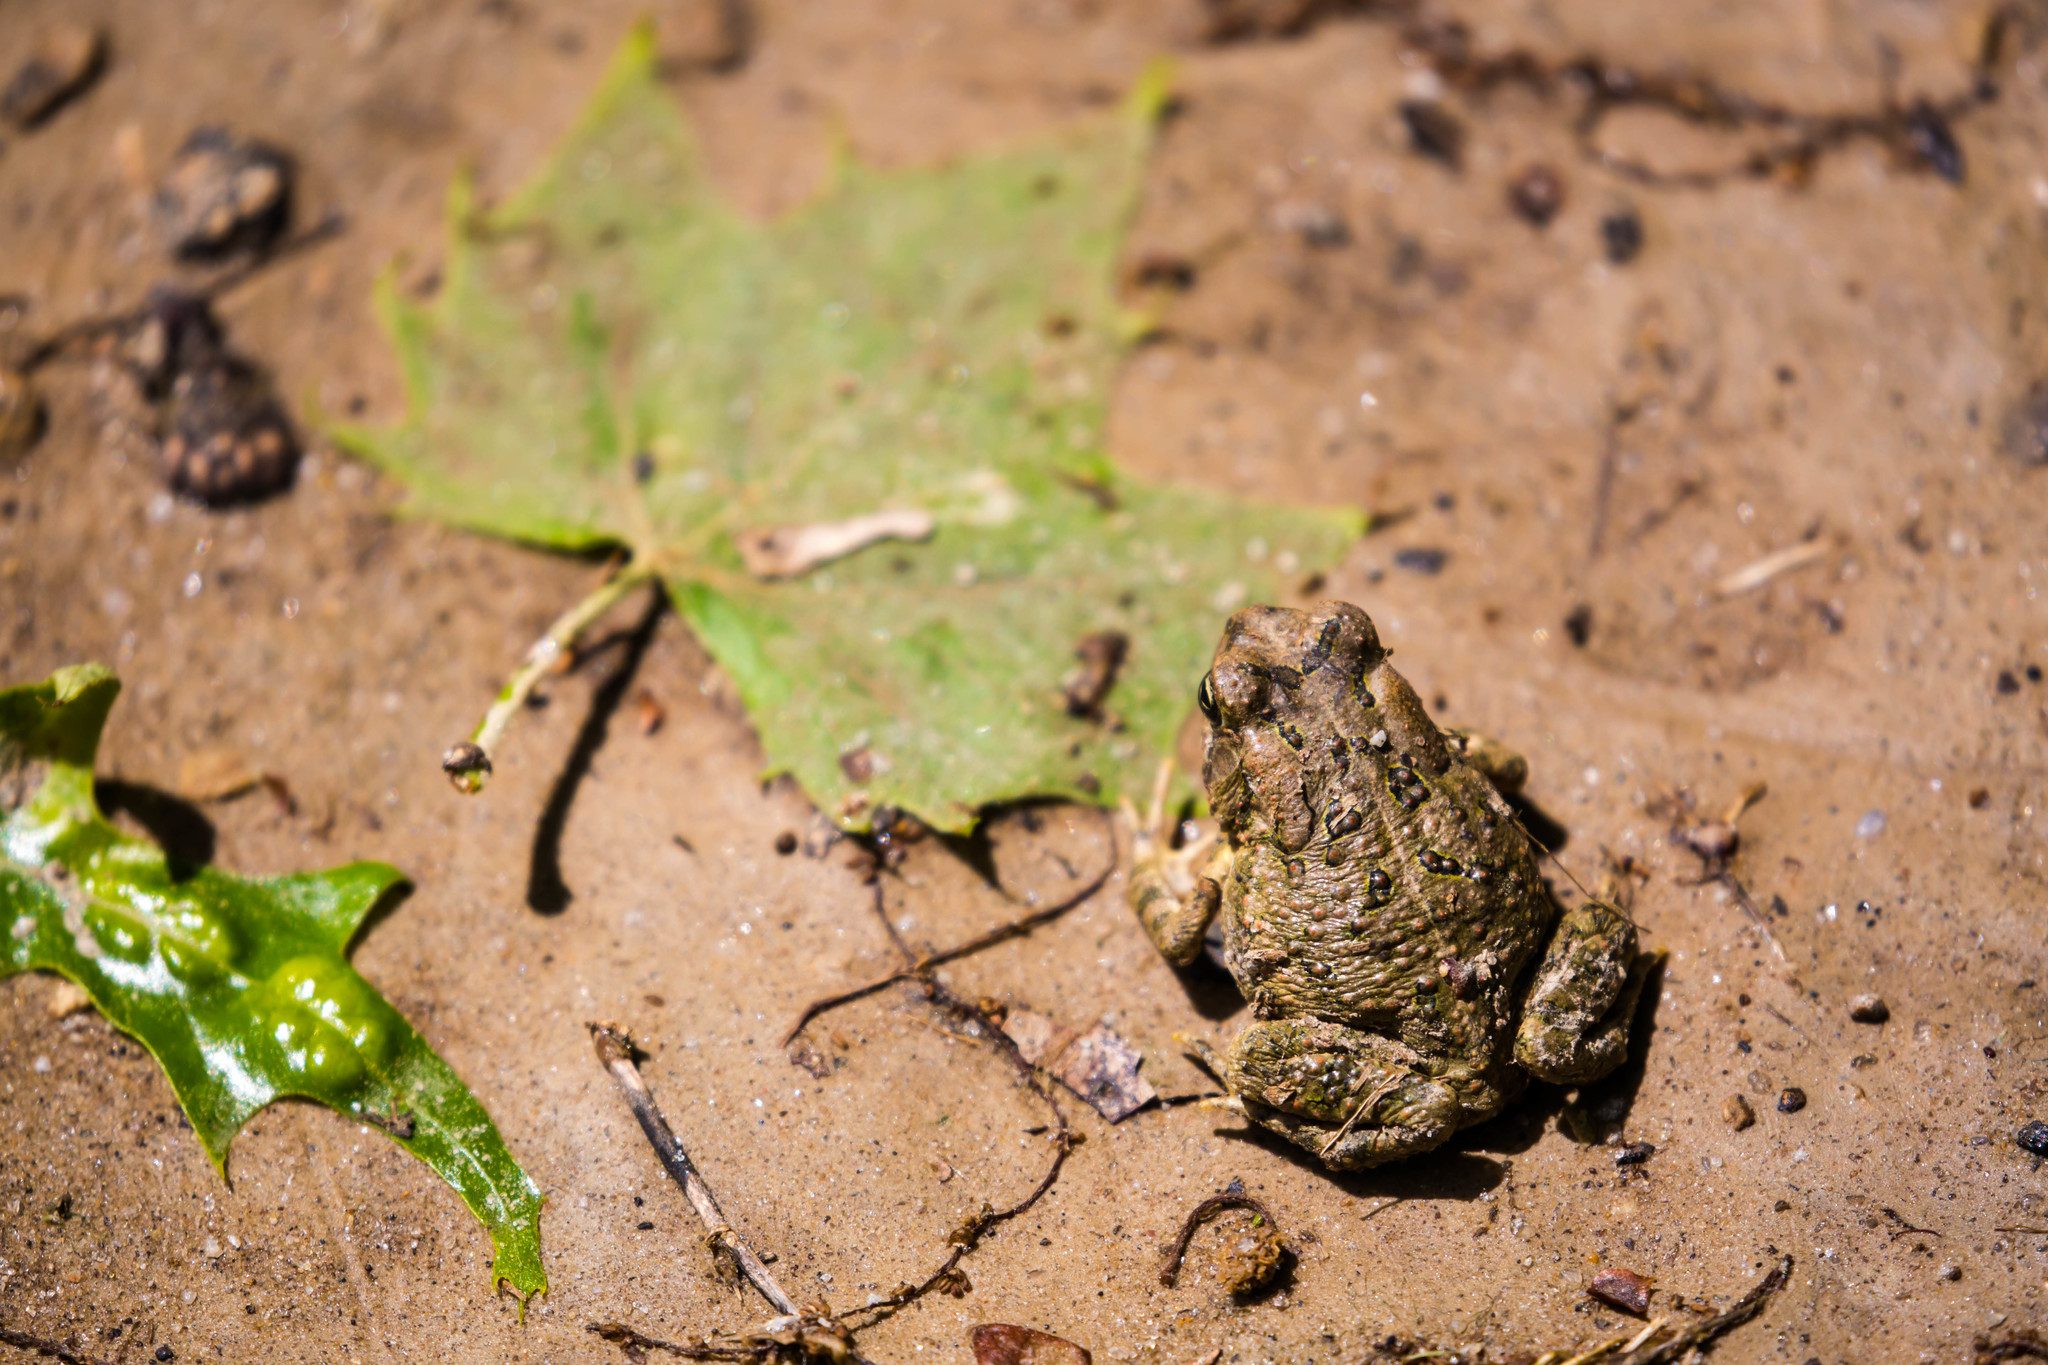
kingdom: Animalia
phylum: Chordata
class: Amphibia
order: Anura
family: Bufonidae
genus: Anaxyrus
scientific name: Anaxyrus fowleri
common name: Fowler's toad
